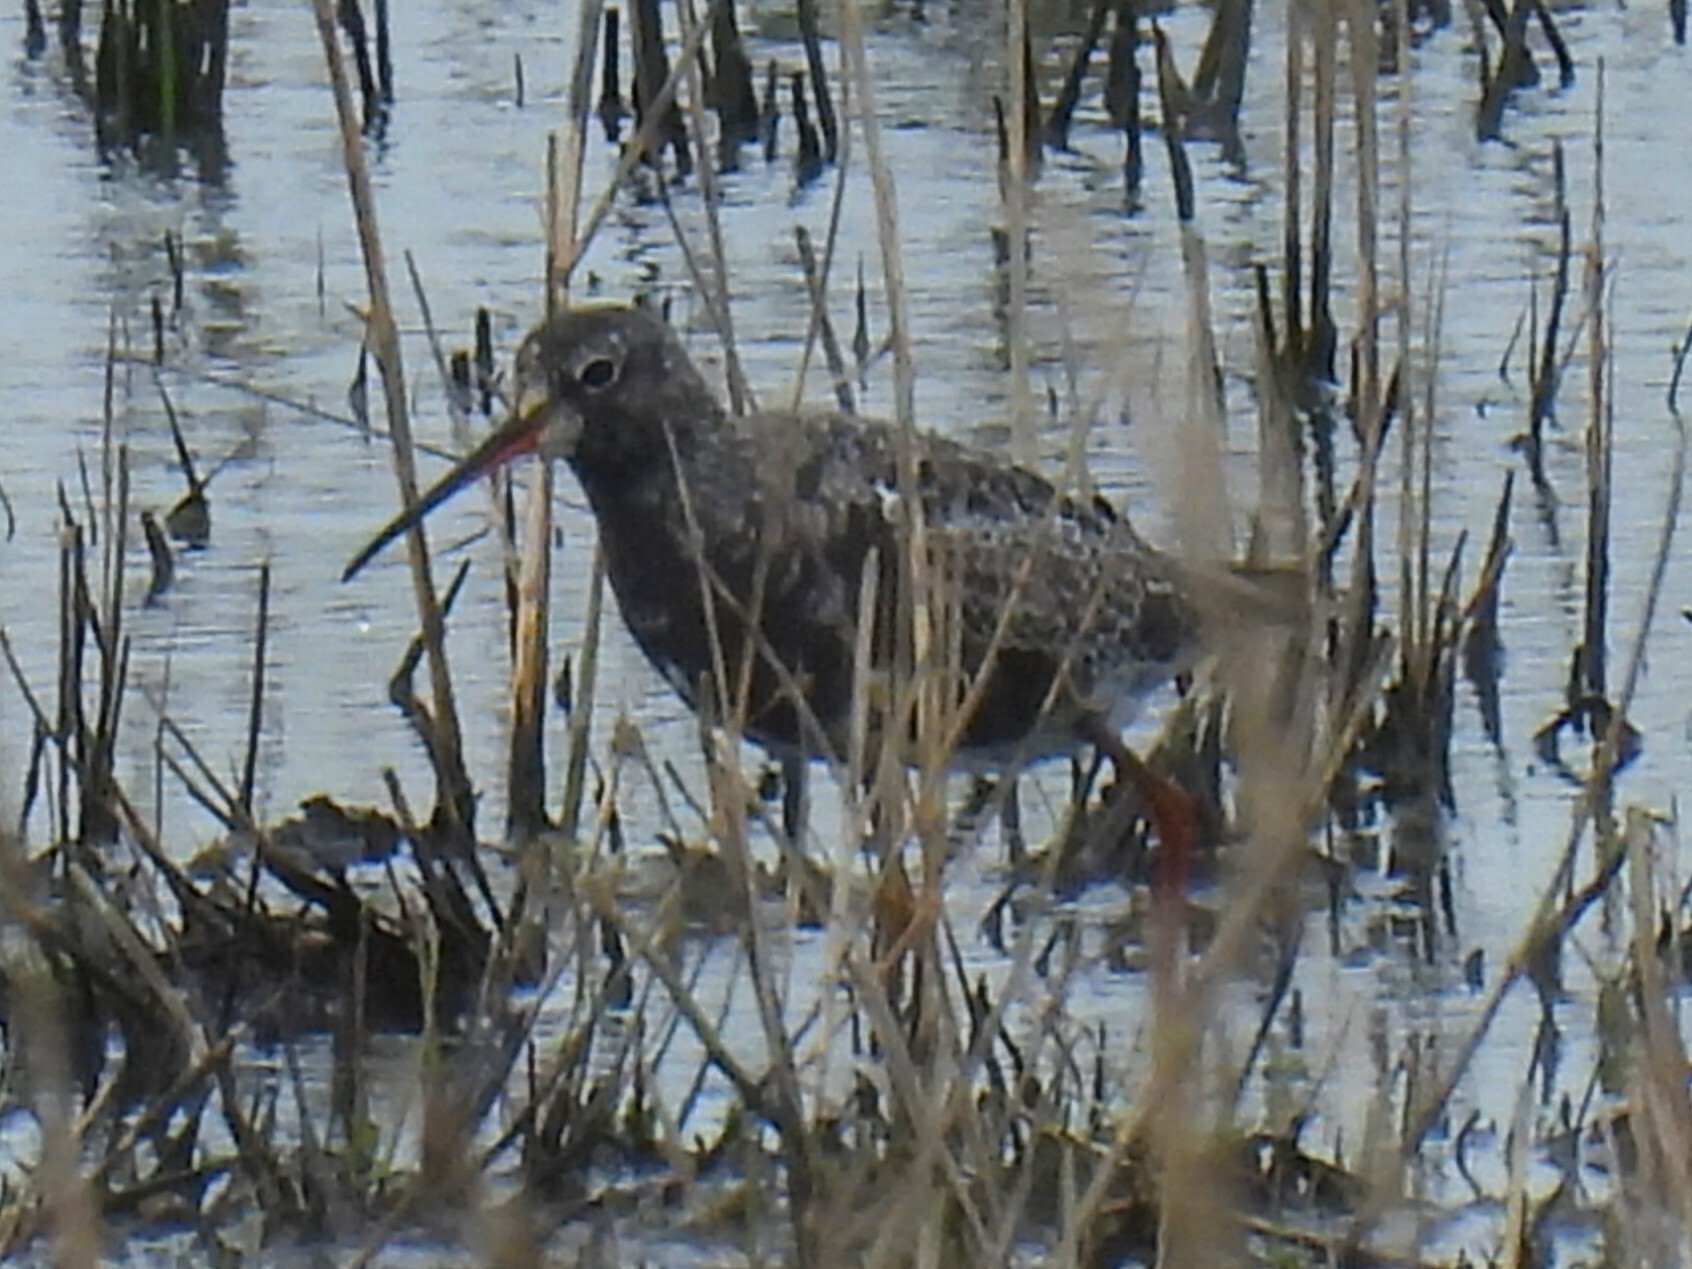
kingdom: Animalia
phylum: Chordata
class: Aves
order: Charadriiformes
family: Scolopacidae
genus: Tringa
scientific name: Tringa erythropus
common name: Spotted redshank
